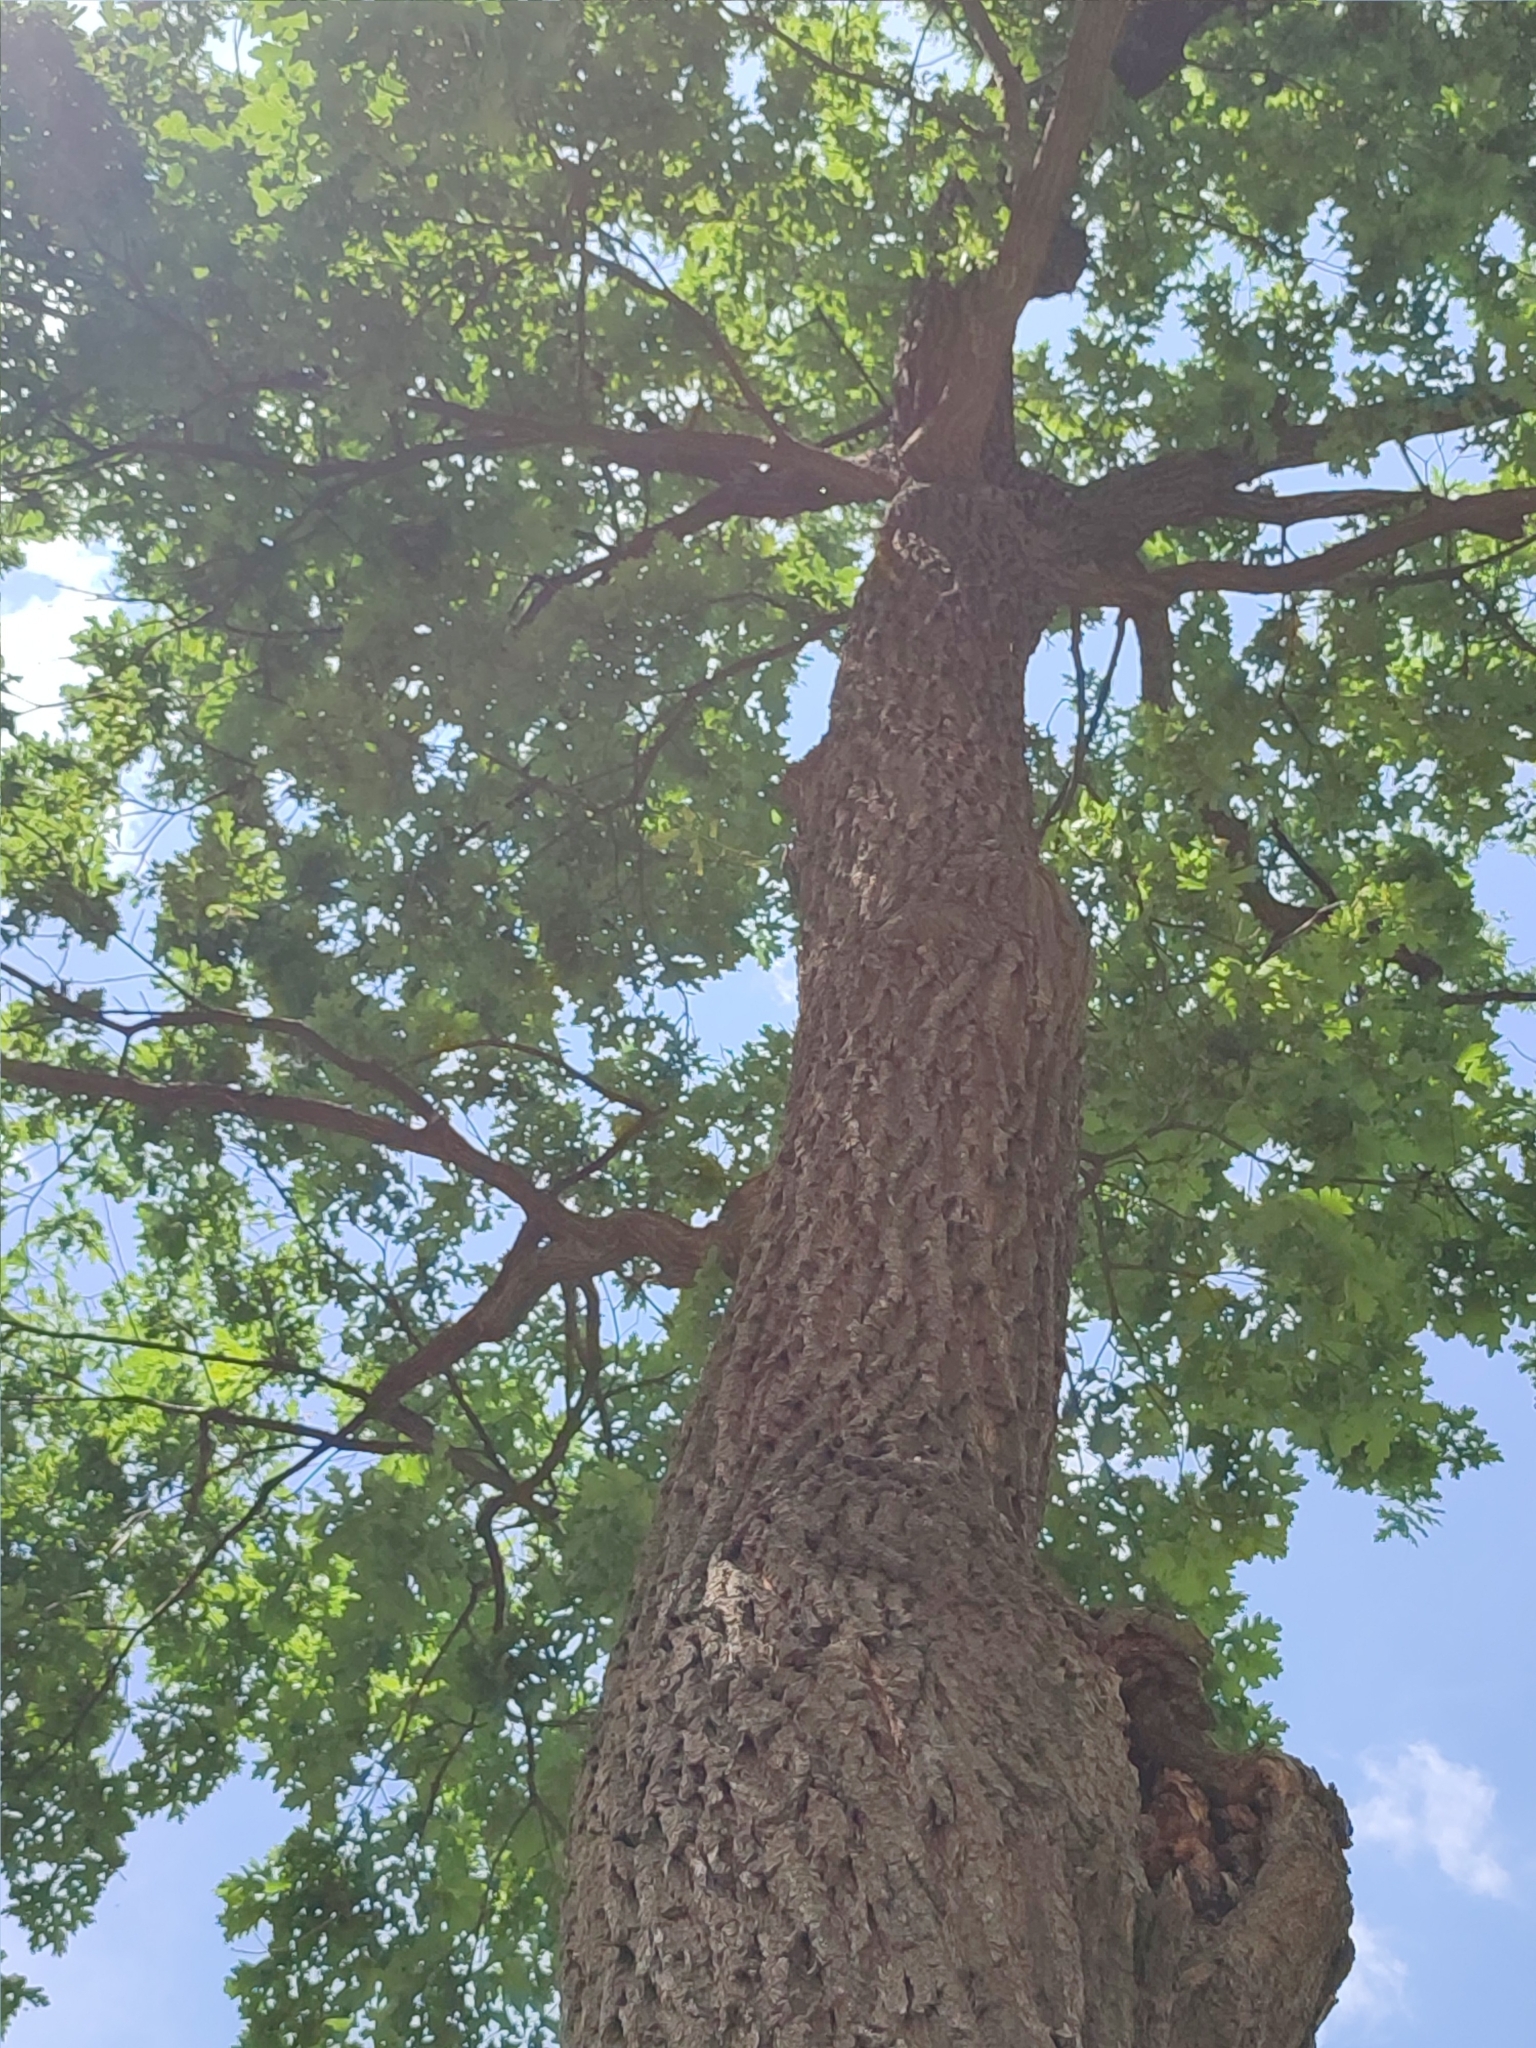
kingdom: Plantae
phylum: Tracheophyta
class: Magnoliopsida
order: Fagales
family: Fagaceae
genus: Quercus
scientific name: Quercus robur
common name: Pedunculate oak
